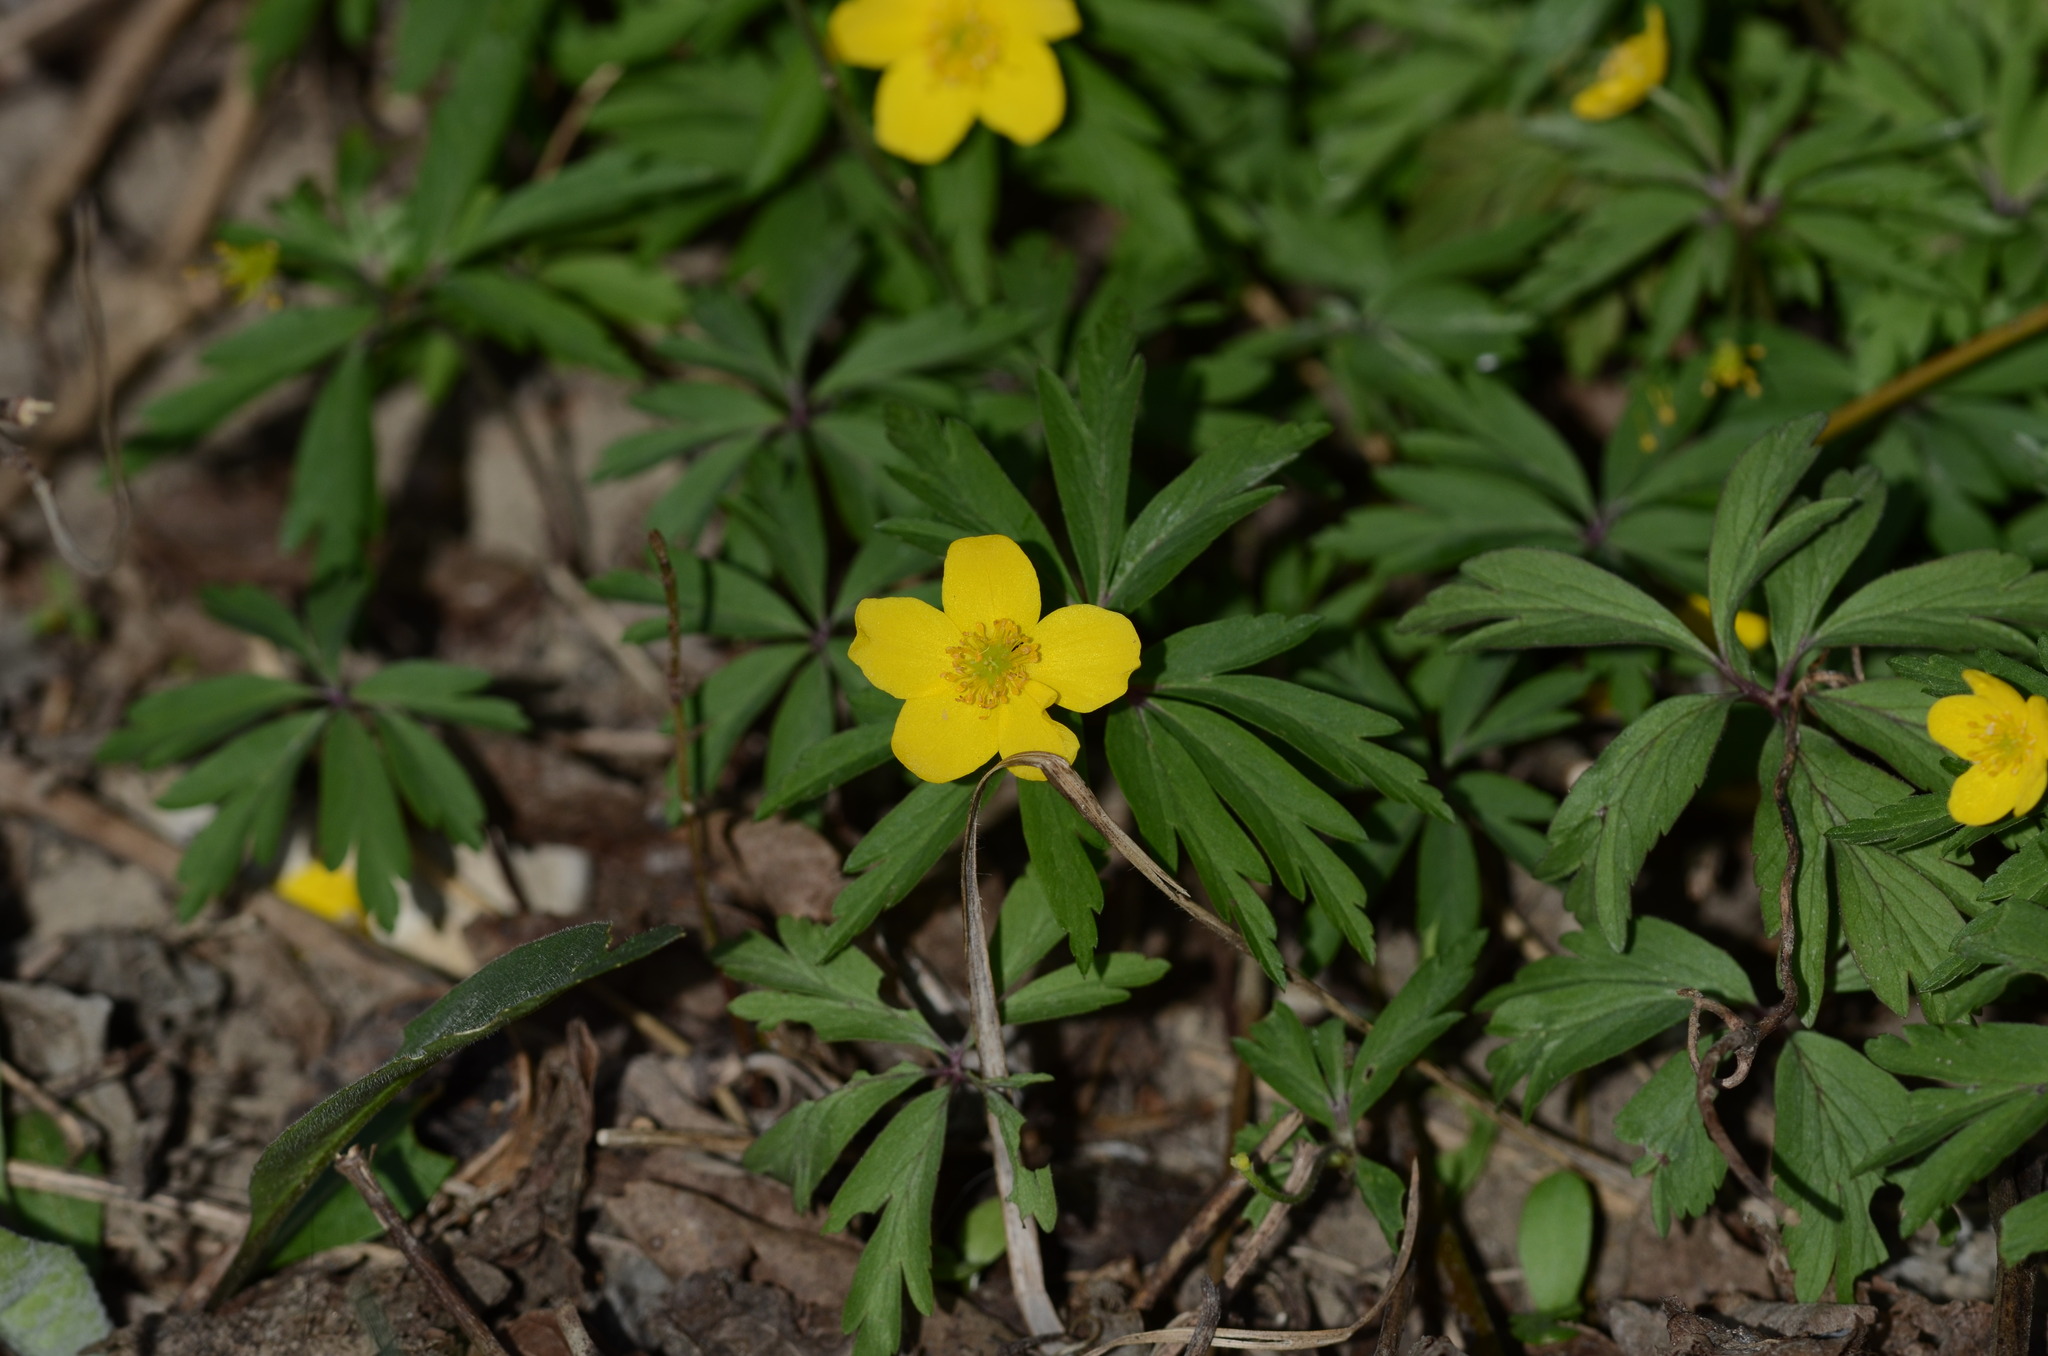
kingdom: Plantae
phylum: Tracheophyta
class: Magnoliopsida
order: Ranunculales
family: Ranunculaceae
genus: Anemone
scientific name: Anemone ranunculoides
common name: Yellow anemone
